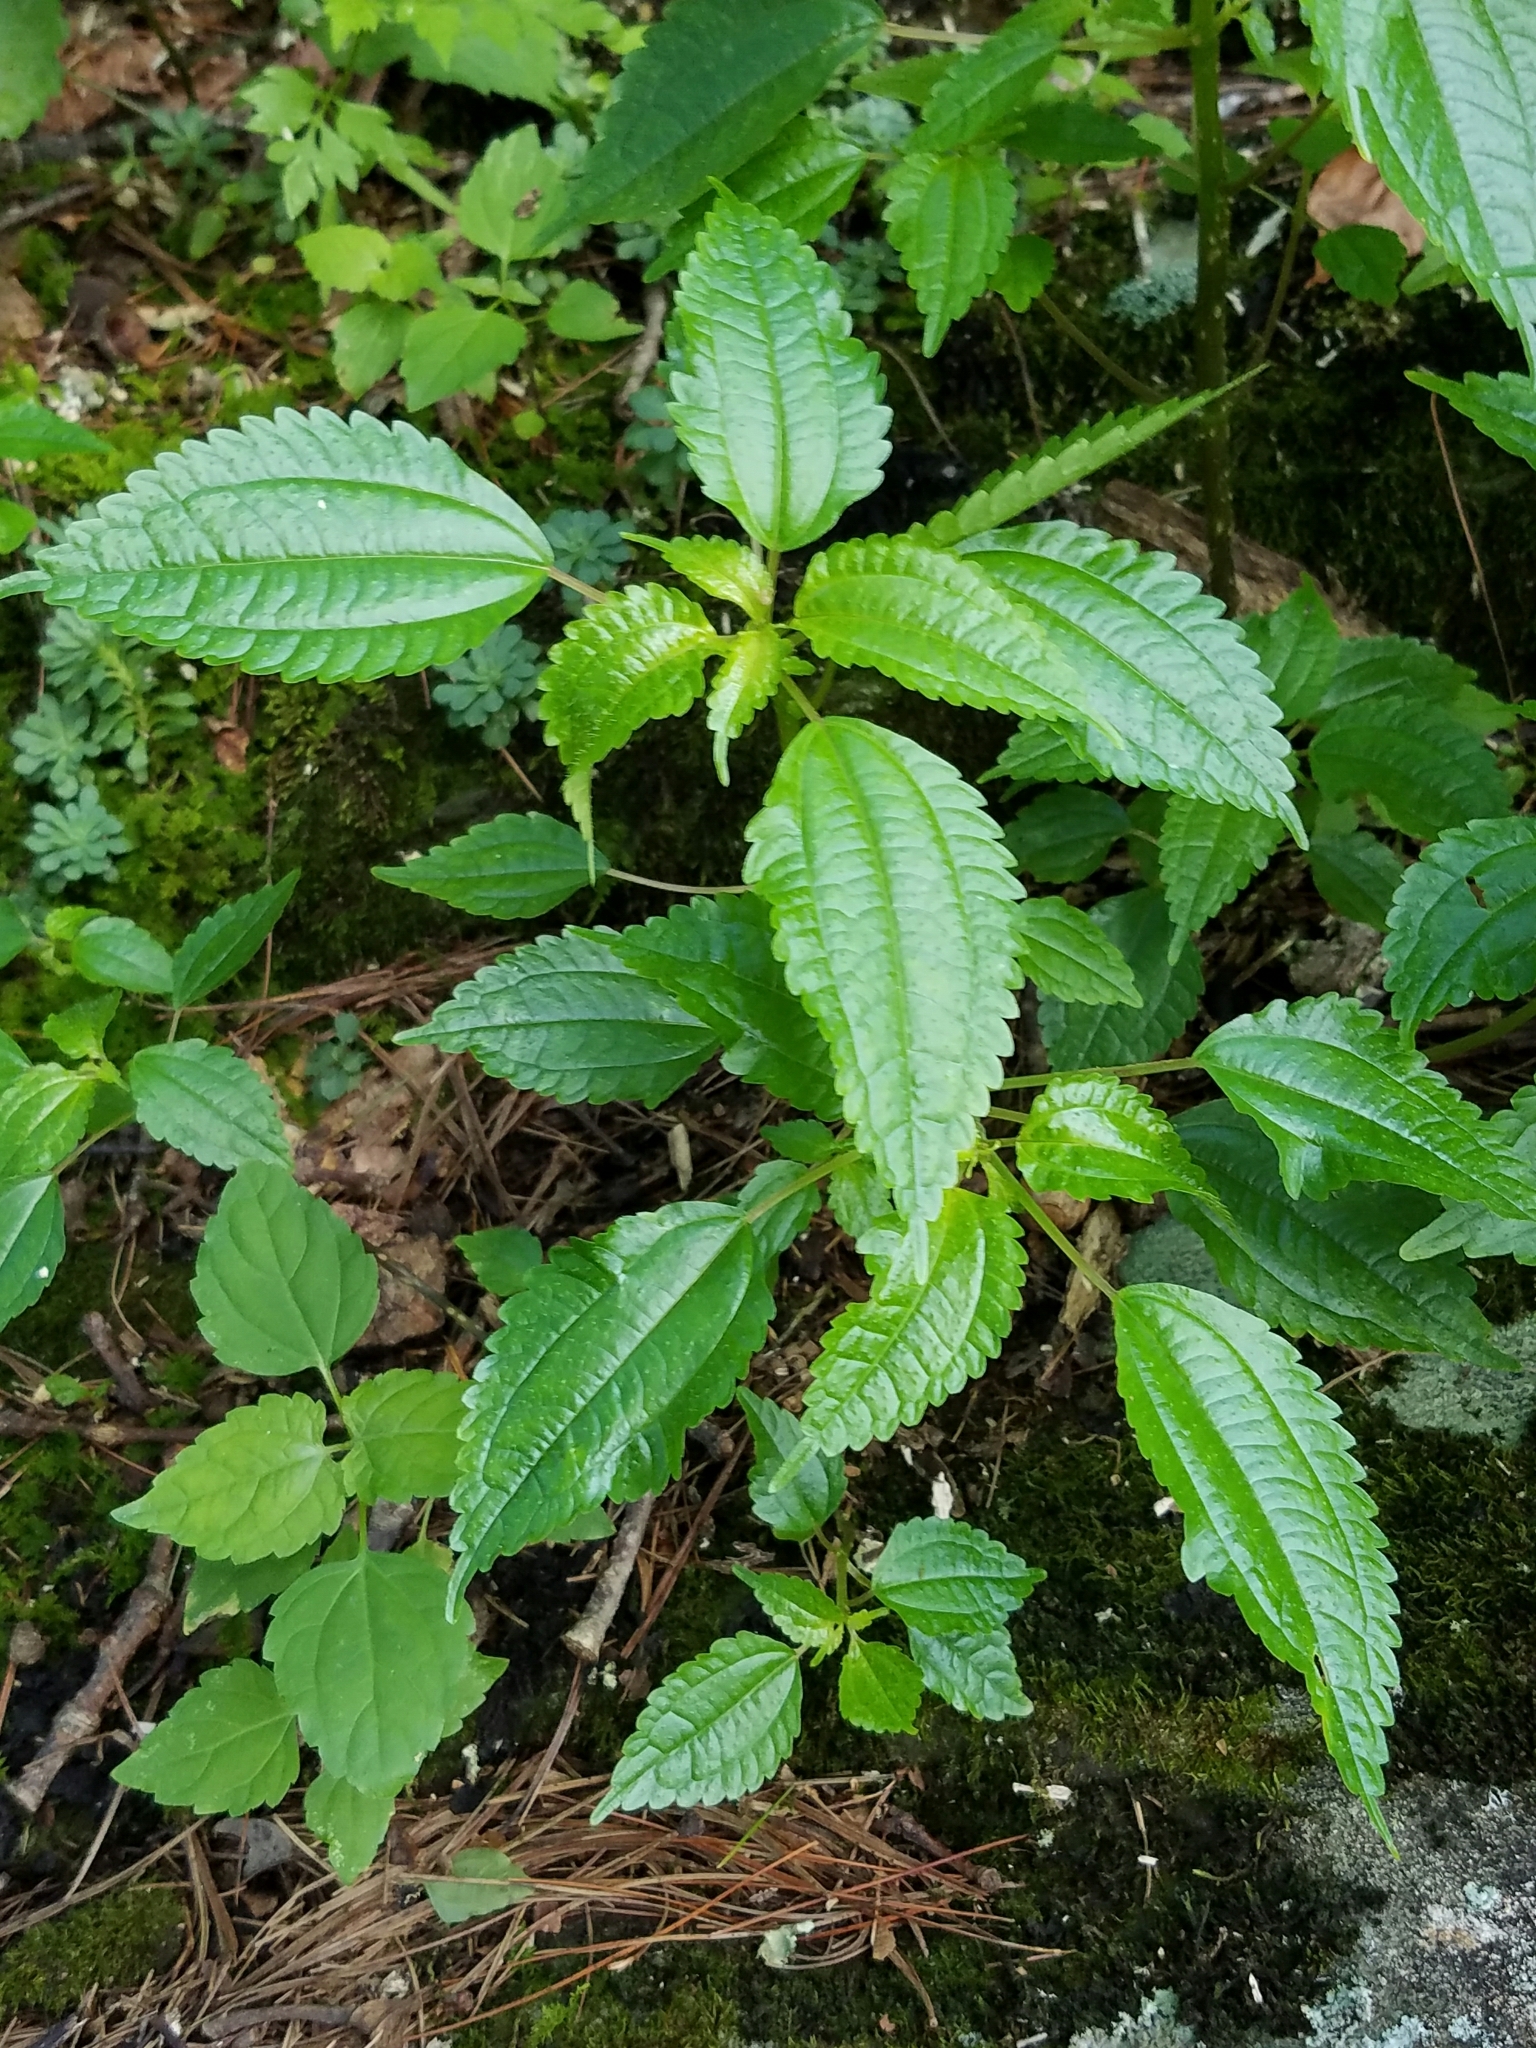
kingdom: Plantae
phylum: Tracheophyta
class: Magnoliopsida
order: Rosales
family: Urticaceae
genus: Pilea
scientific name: Pilea pumila
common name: Clearweed
